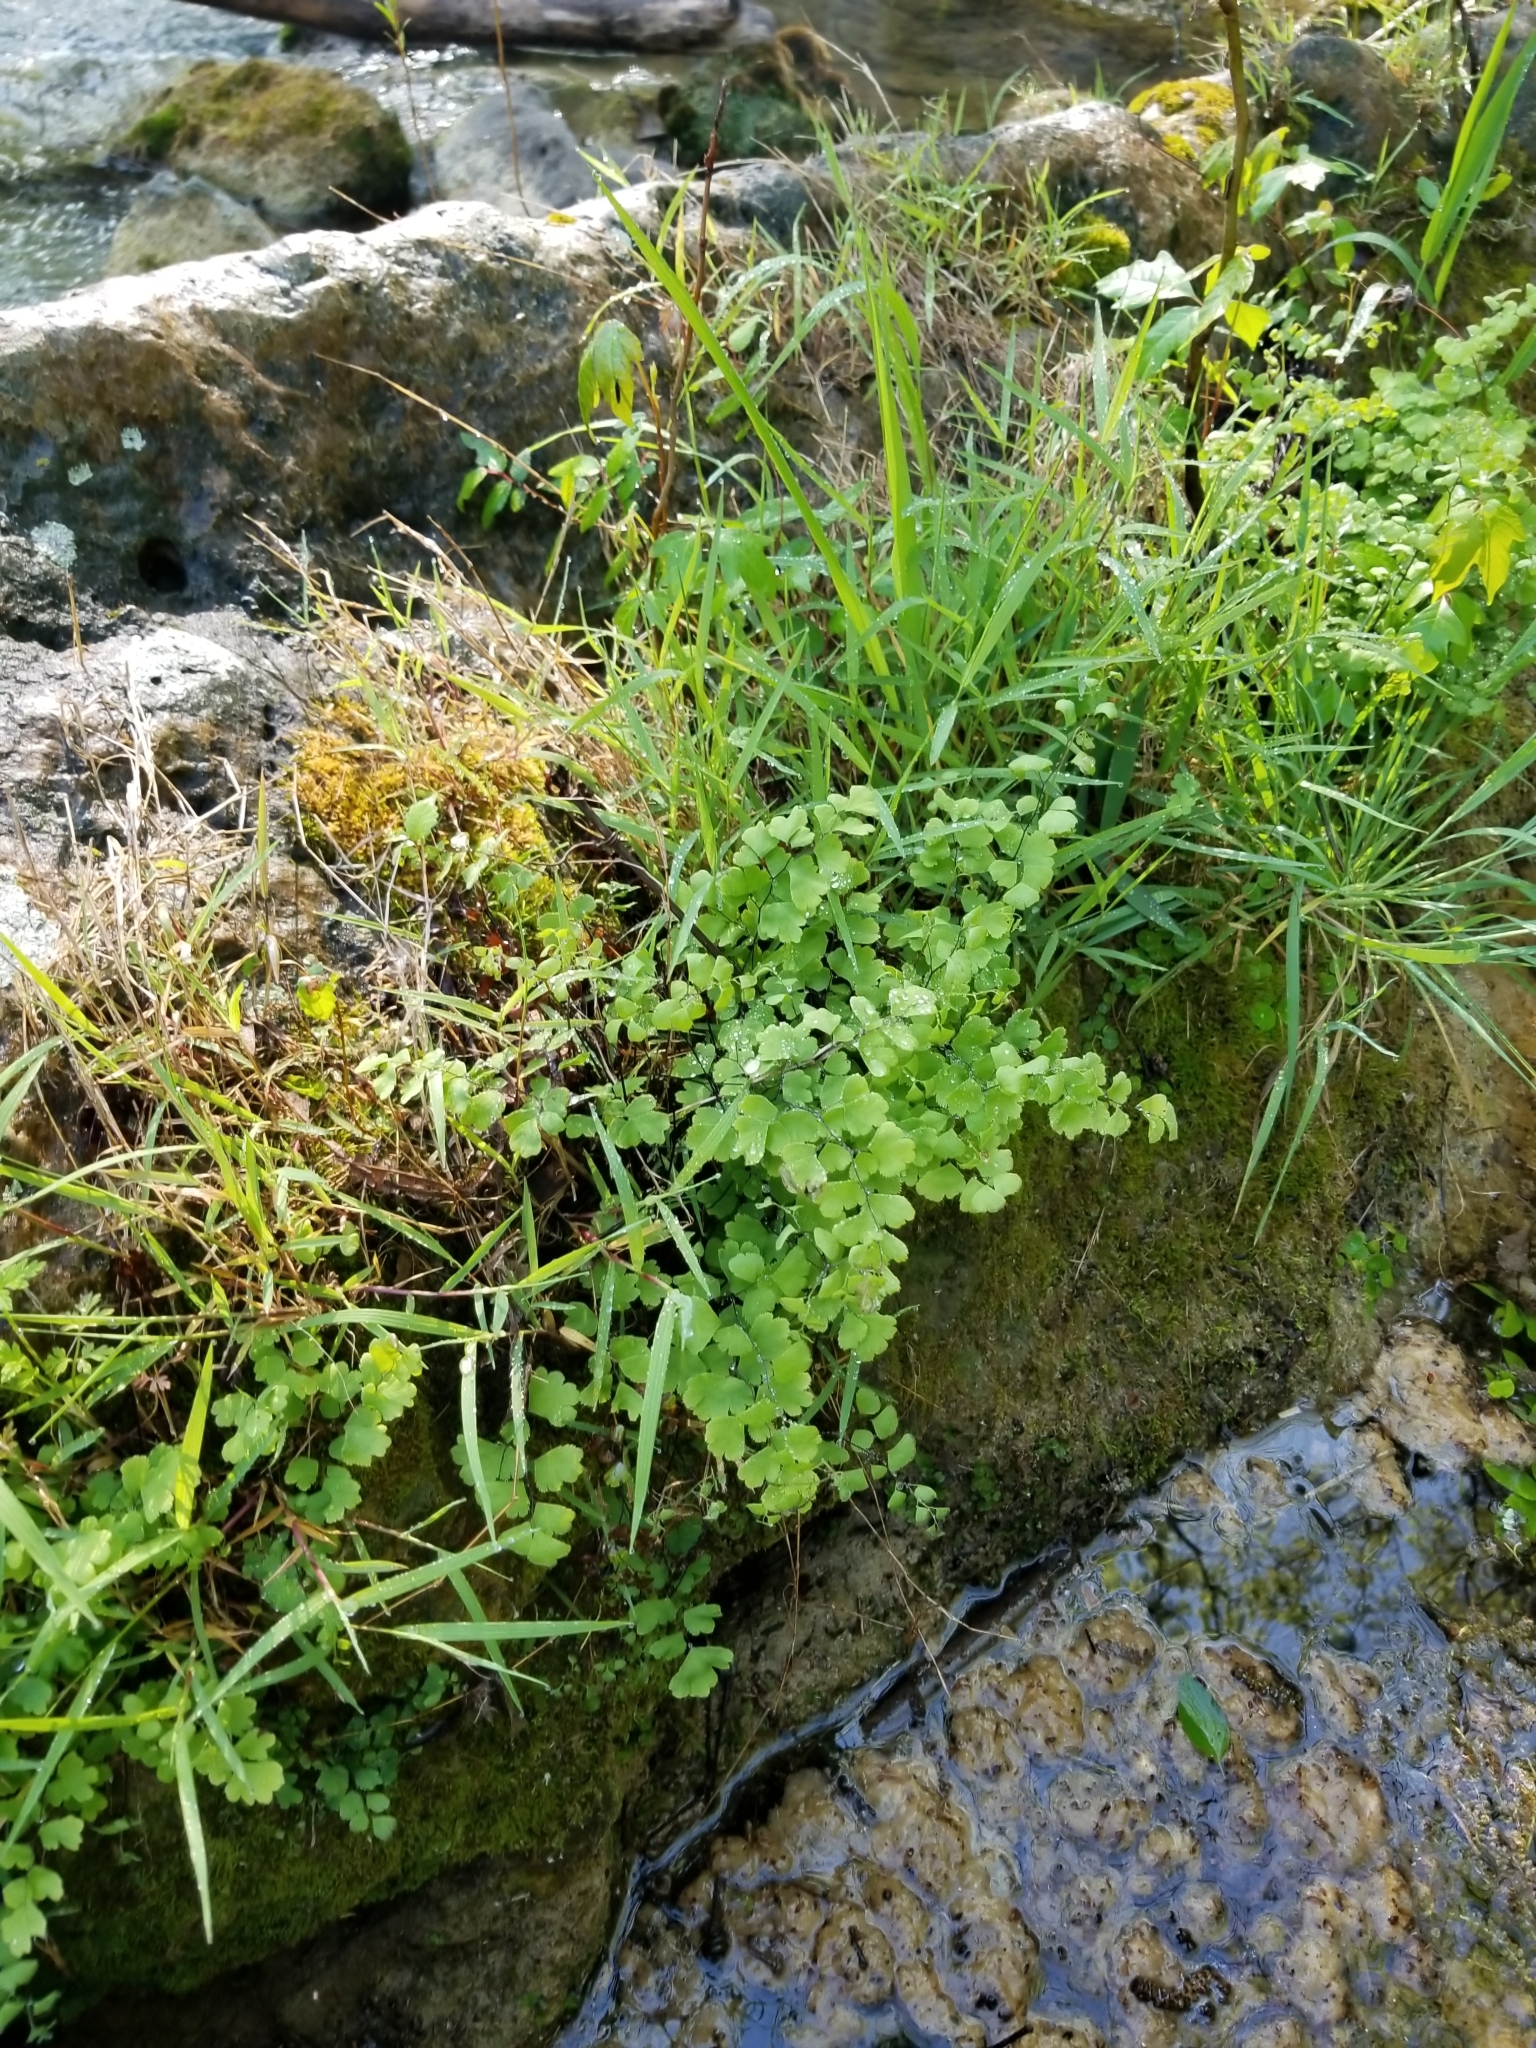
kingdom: Plantae
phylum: Tracheophyta
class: Polypodiopsida
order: Polypodiales
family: Pteridaceae
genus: Adiantum
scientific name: Adiantum capillus-veneris
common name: Maidenhair fern
